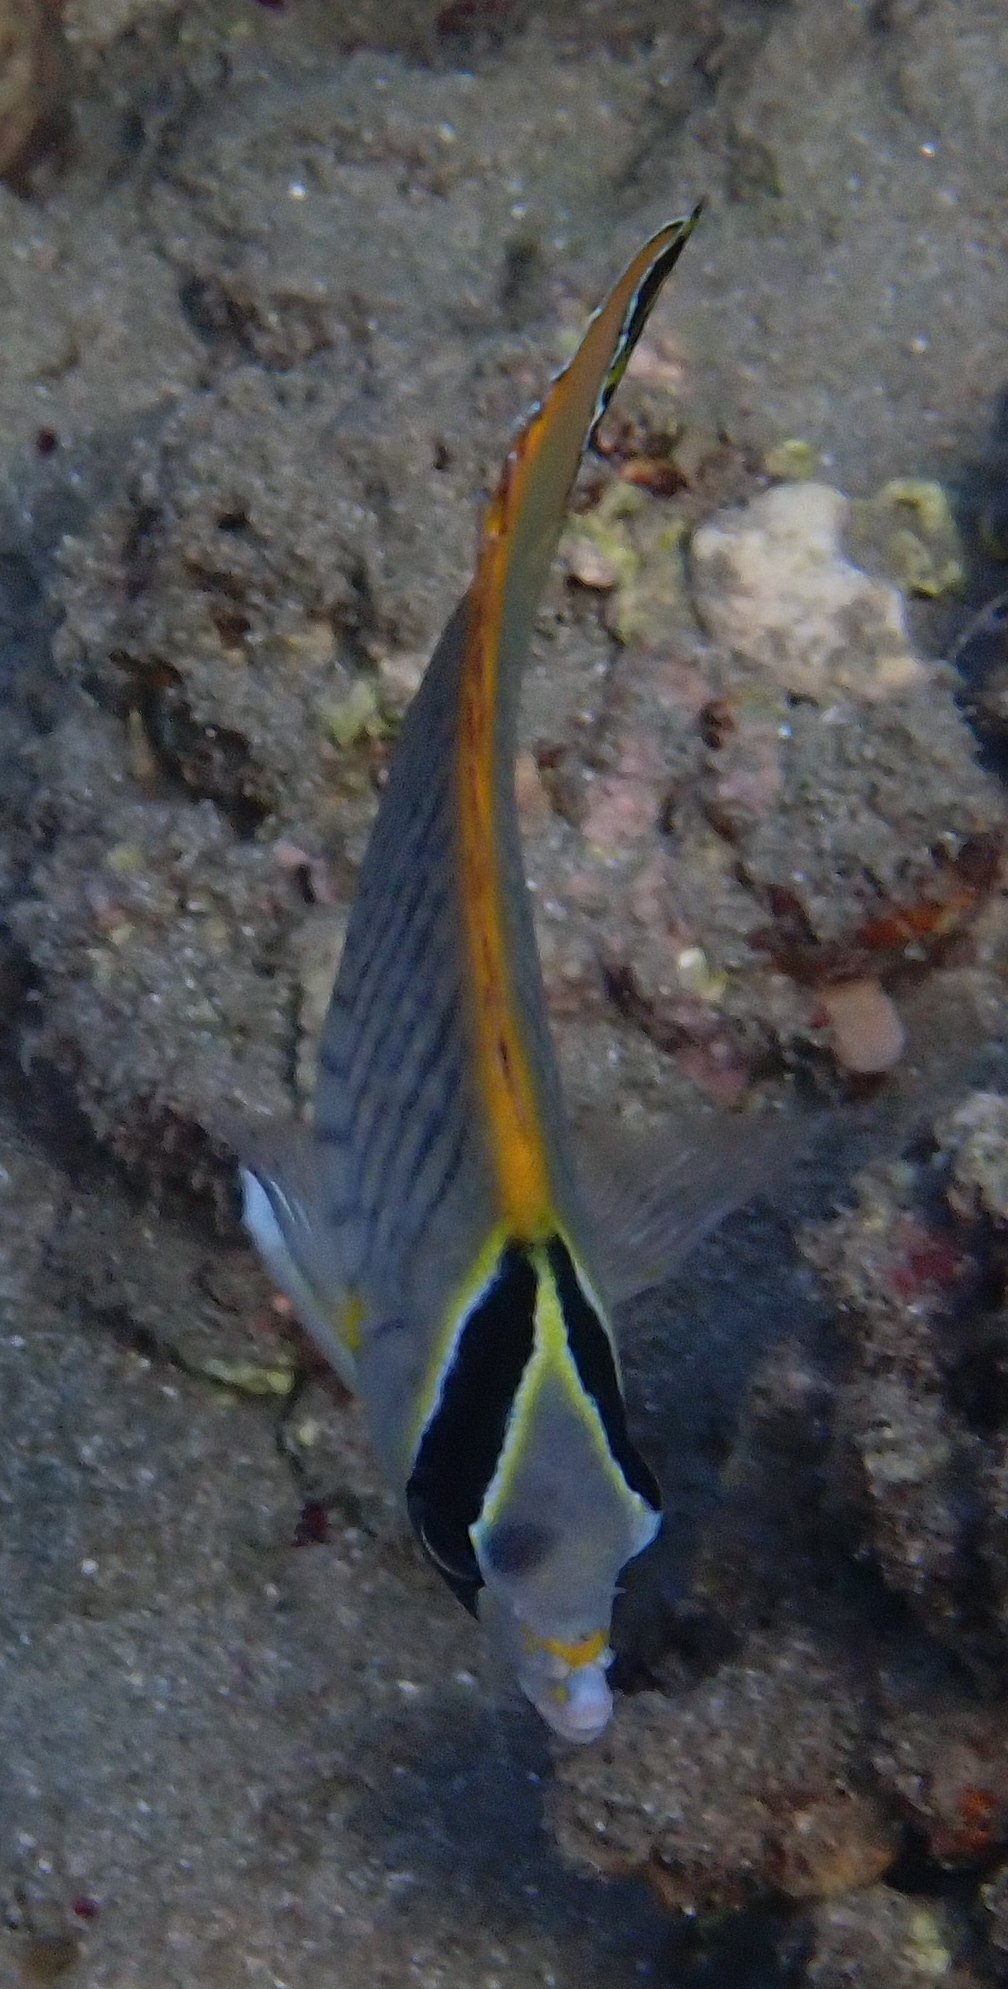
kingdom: Animalia
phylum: Chordata
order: Perciformes
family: Chaetodontidae
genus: Chaetodon
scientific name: Chaetodon trifascialis
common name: Chevroned butterflyfish
